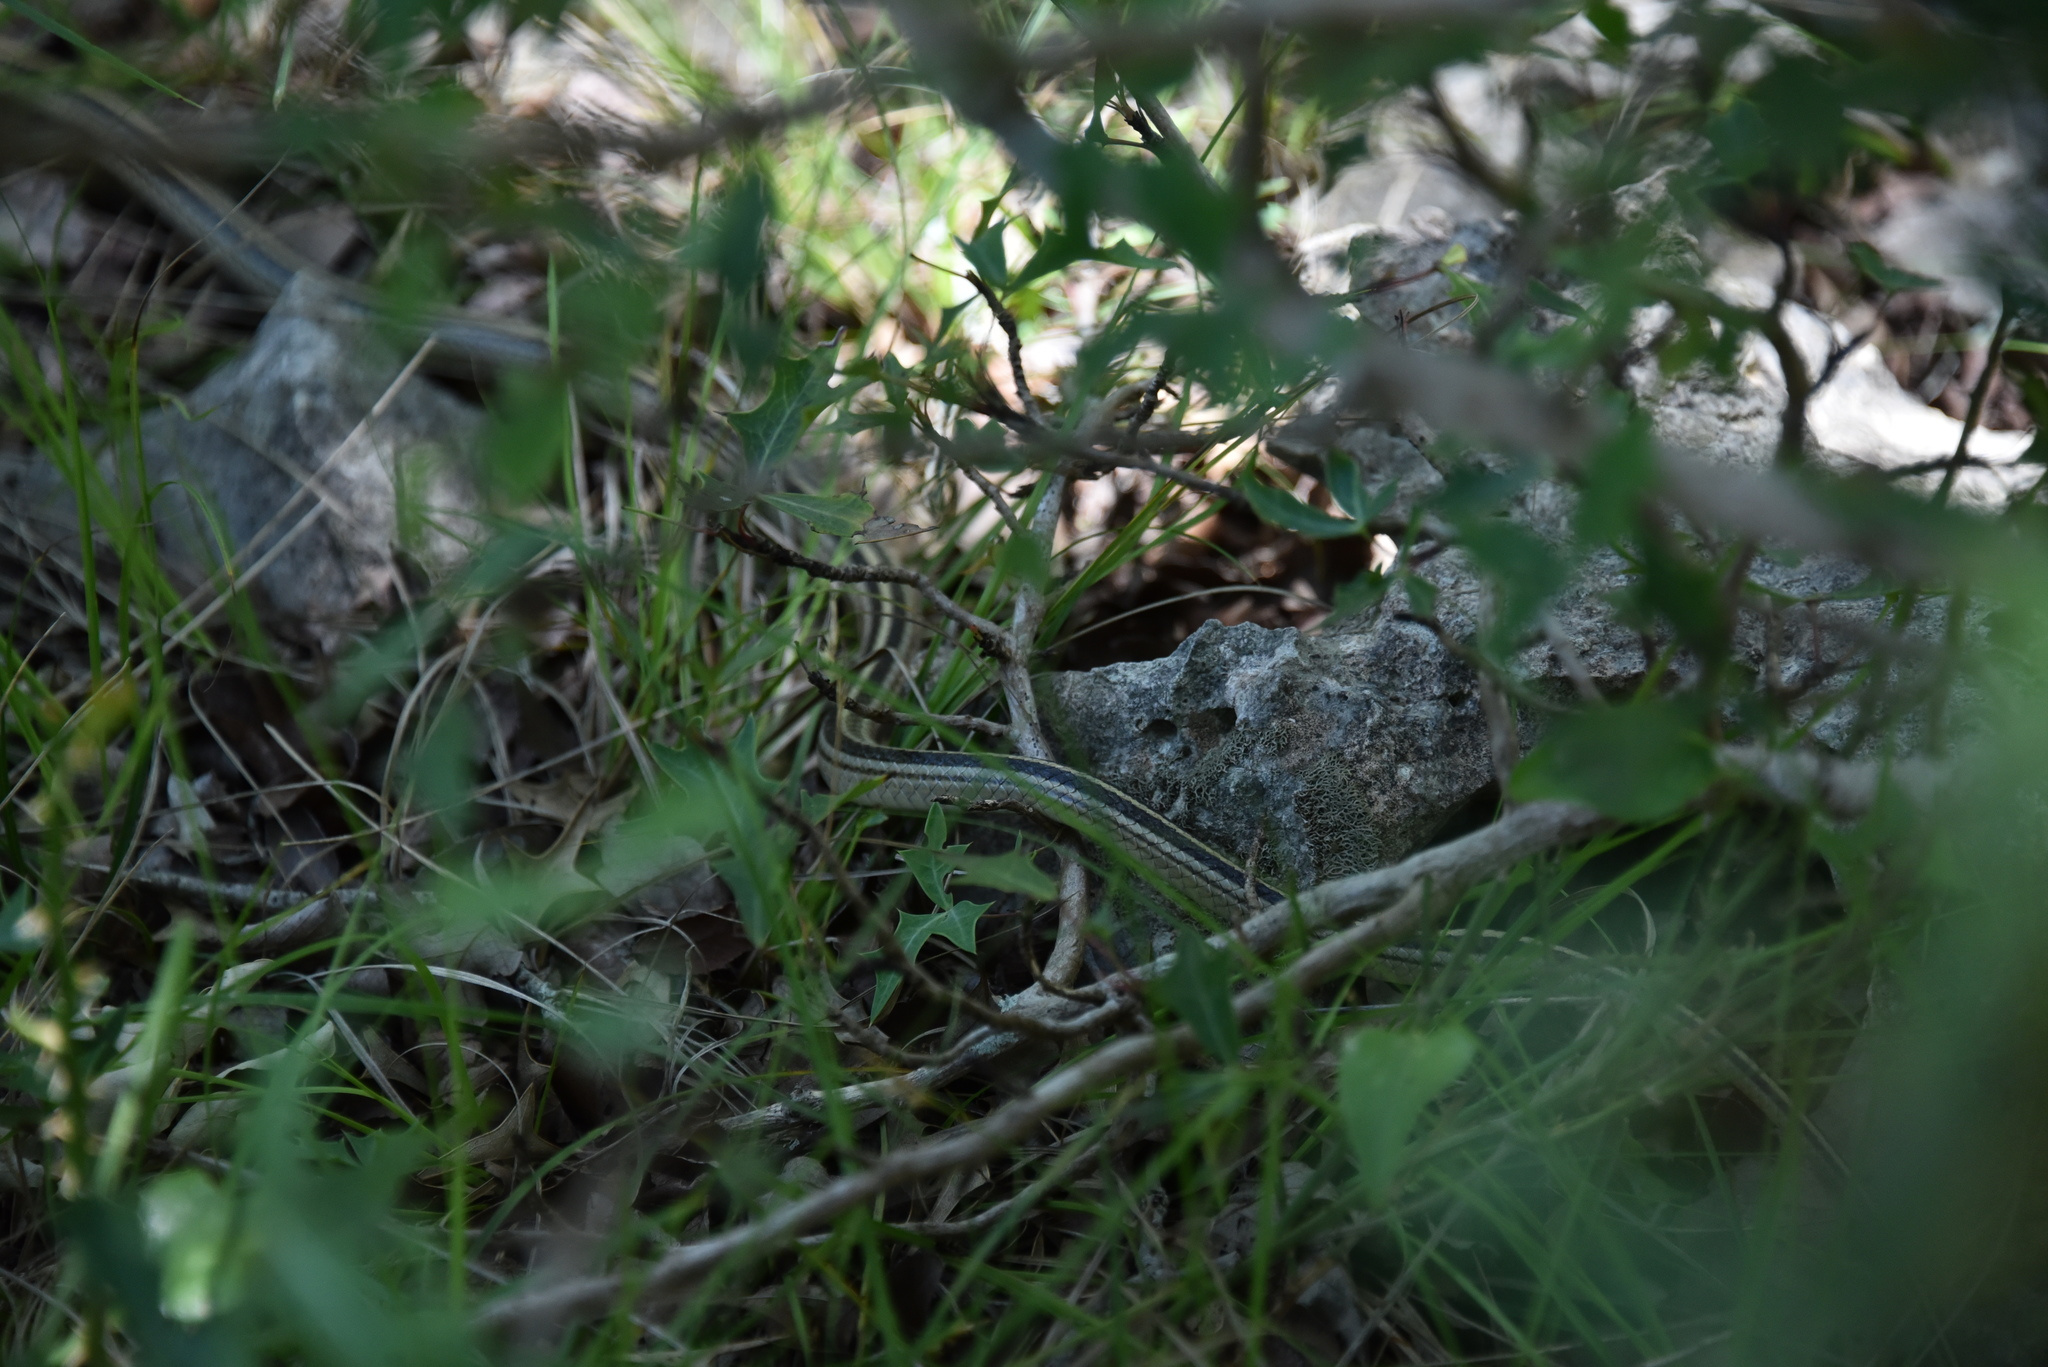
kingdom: Animalia
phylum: Chordata
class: Squamata
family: Colubridae
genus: Salvadora
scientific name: Salvadora lineata
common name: Texas patchnose snake
